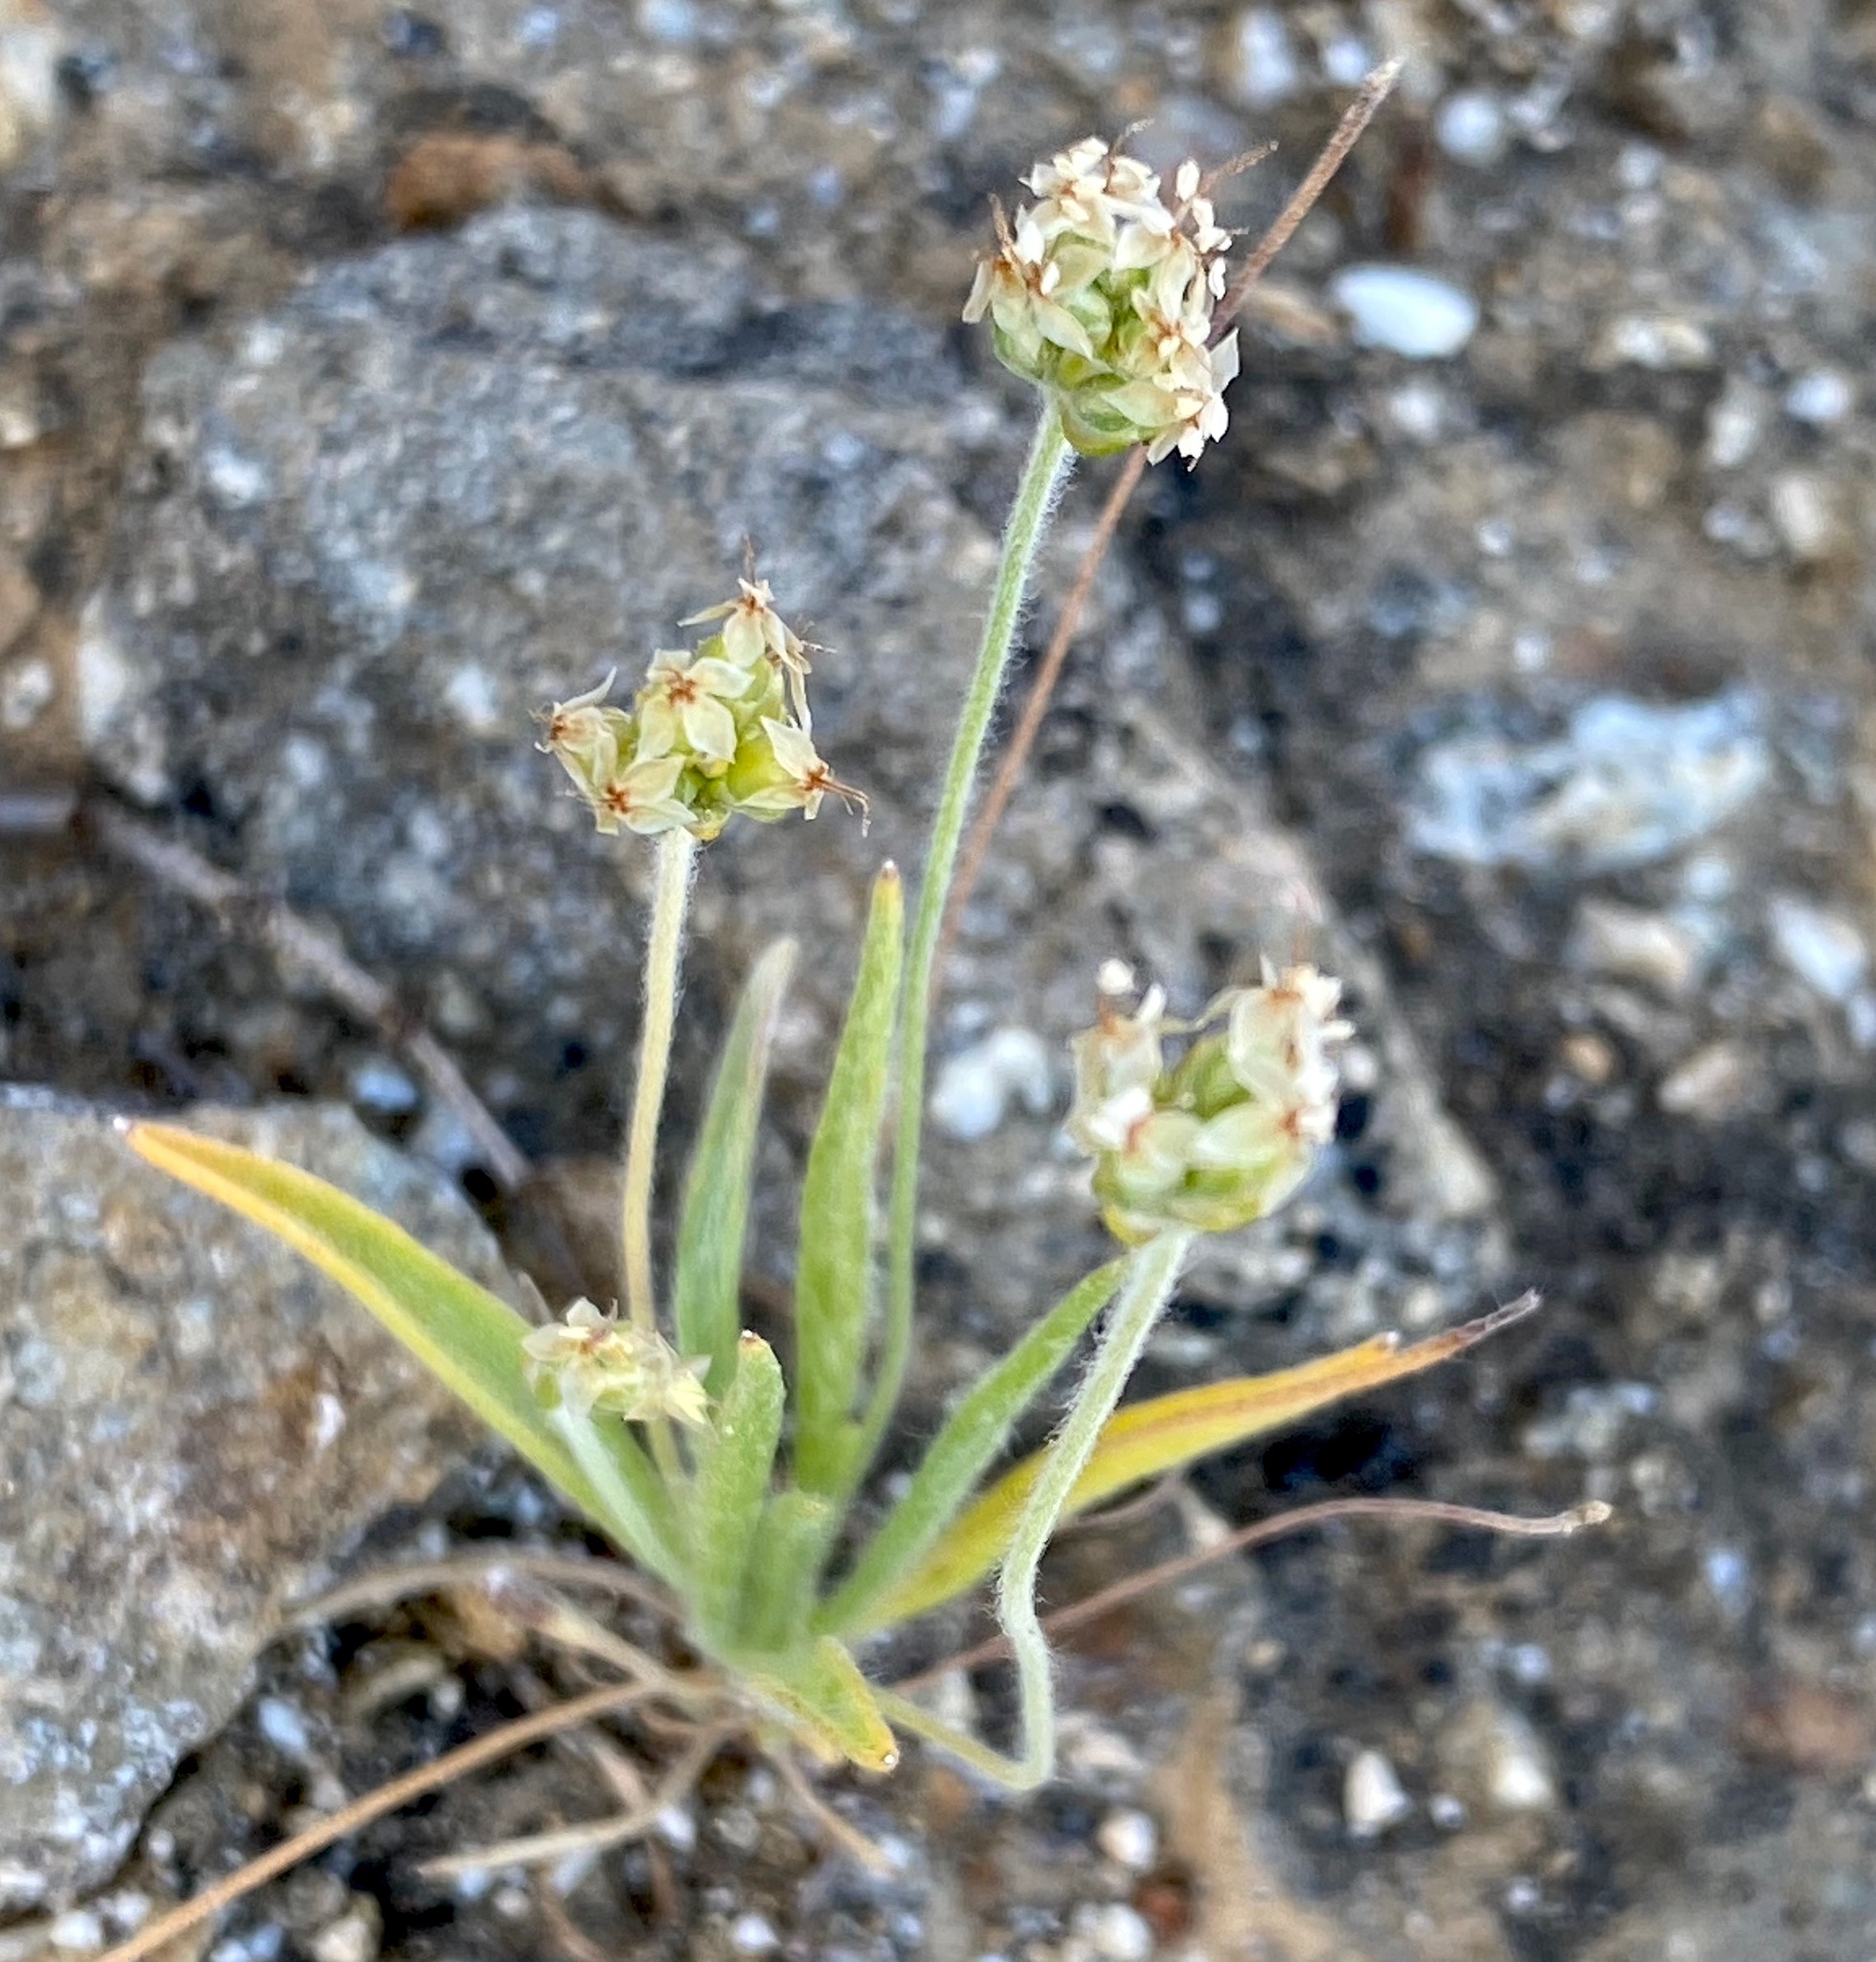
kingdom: Plantae
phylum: Tracheophyta
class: Magnoliopsida
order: Lamiales
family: Plantaginaceae
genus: Plantago
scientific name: Plantago ovata
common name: Blond plantain
